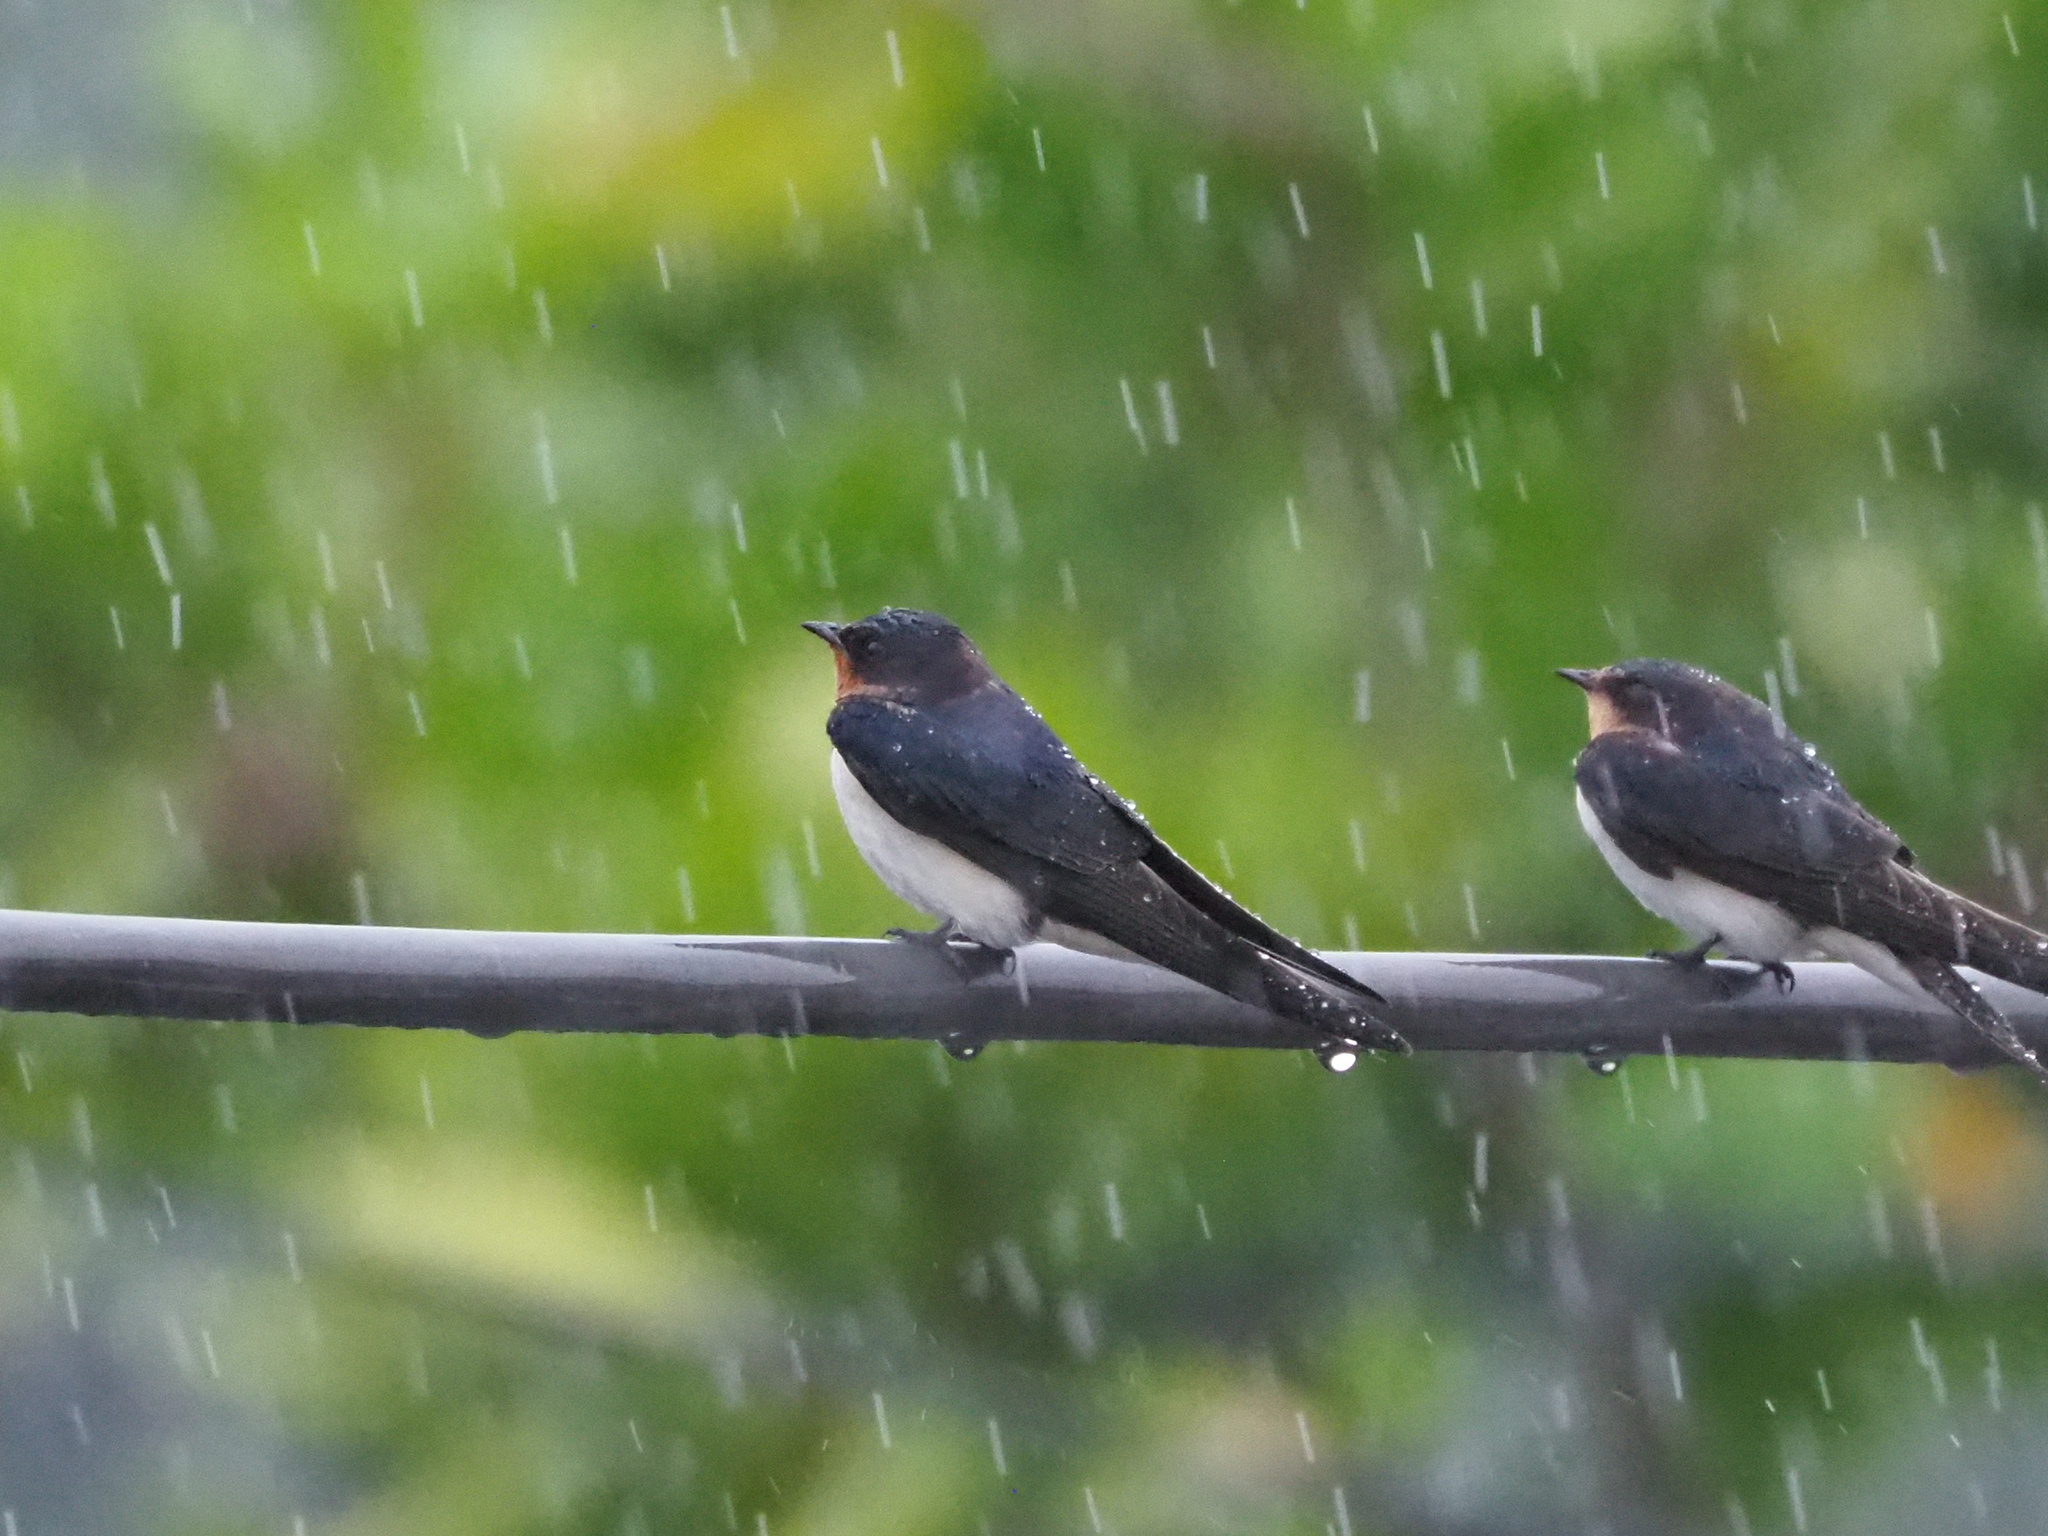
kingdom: Animalia
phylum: Chordata
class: Aves
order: Passeriformes
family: Hirundinidae
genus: Hirundo
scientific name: Hirundo rustica
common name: Barn swallow
